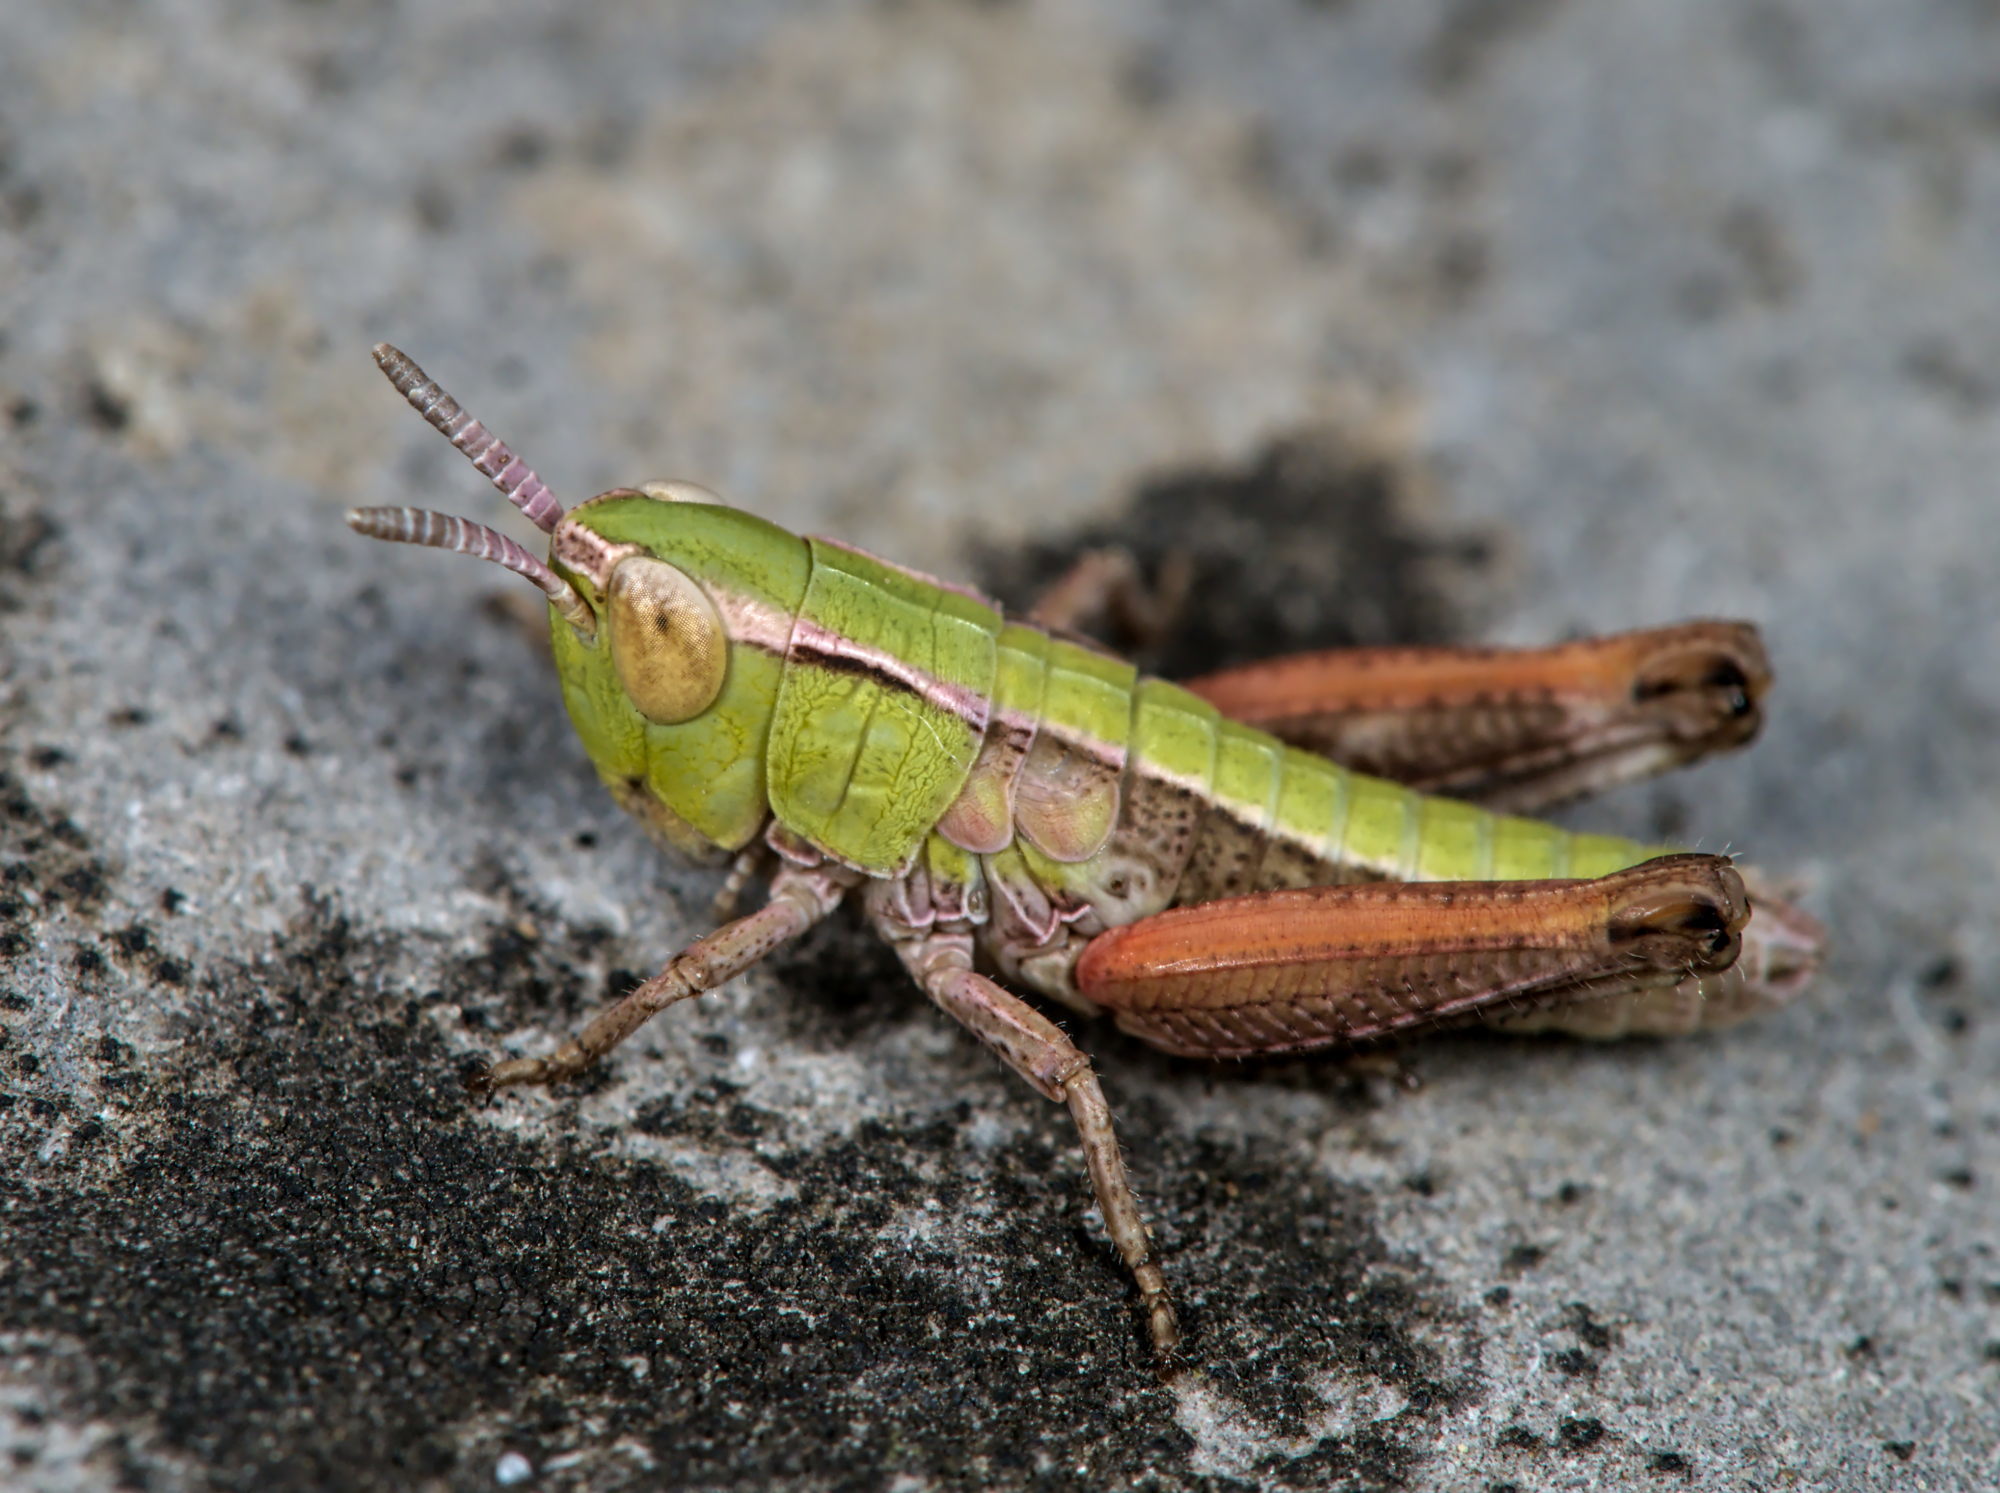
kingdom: Animalia
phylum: Arthropoda
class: Insecta
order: Orthoptera
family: Acrididae
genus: Stenobothrus
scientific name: Stenobothrus lineatus
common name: Stripe-winged grasshopper
